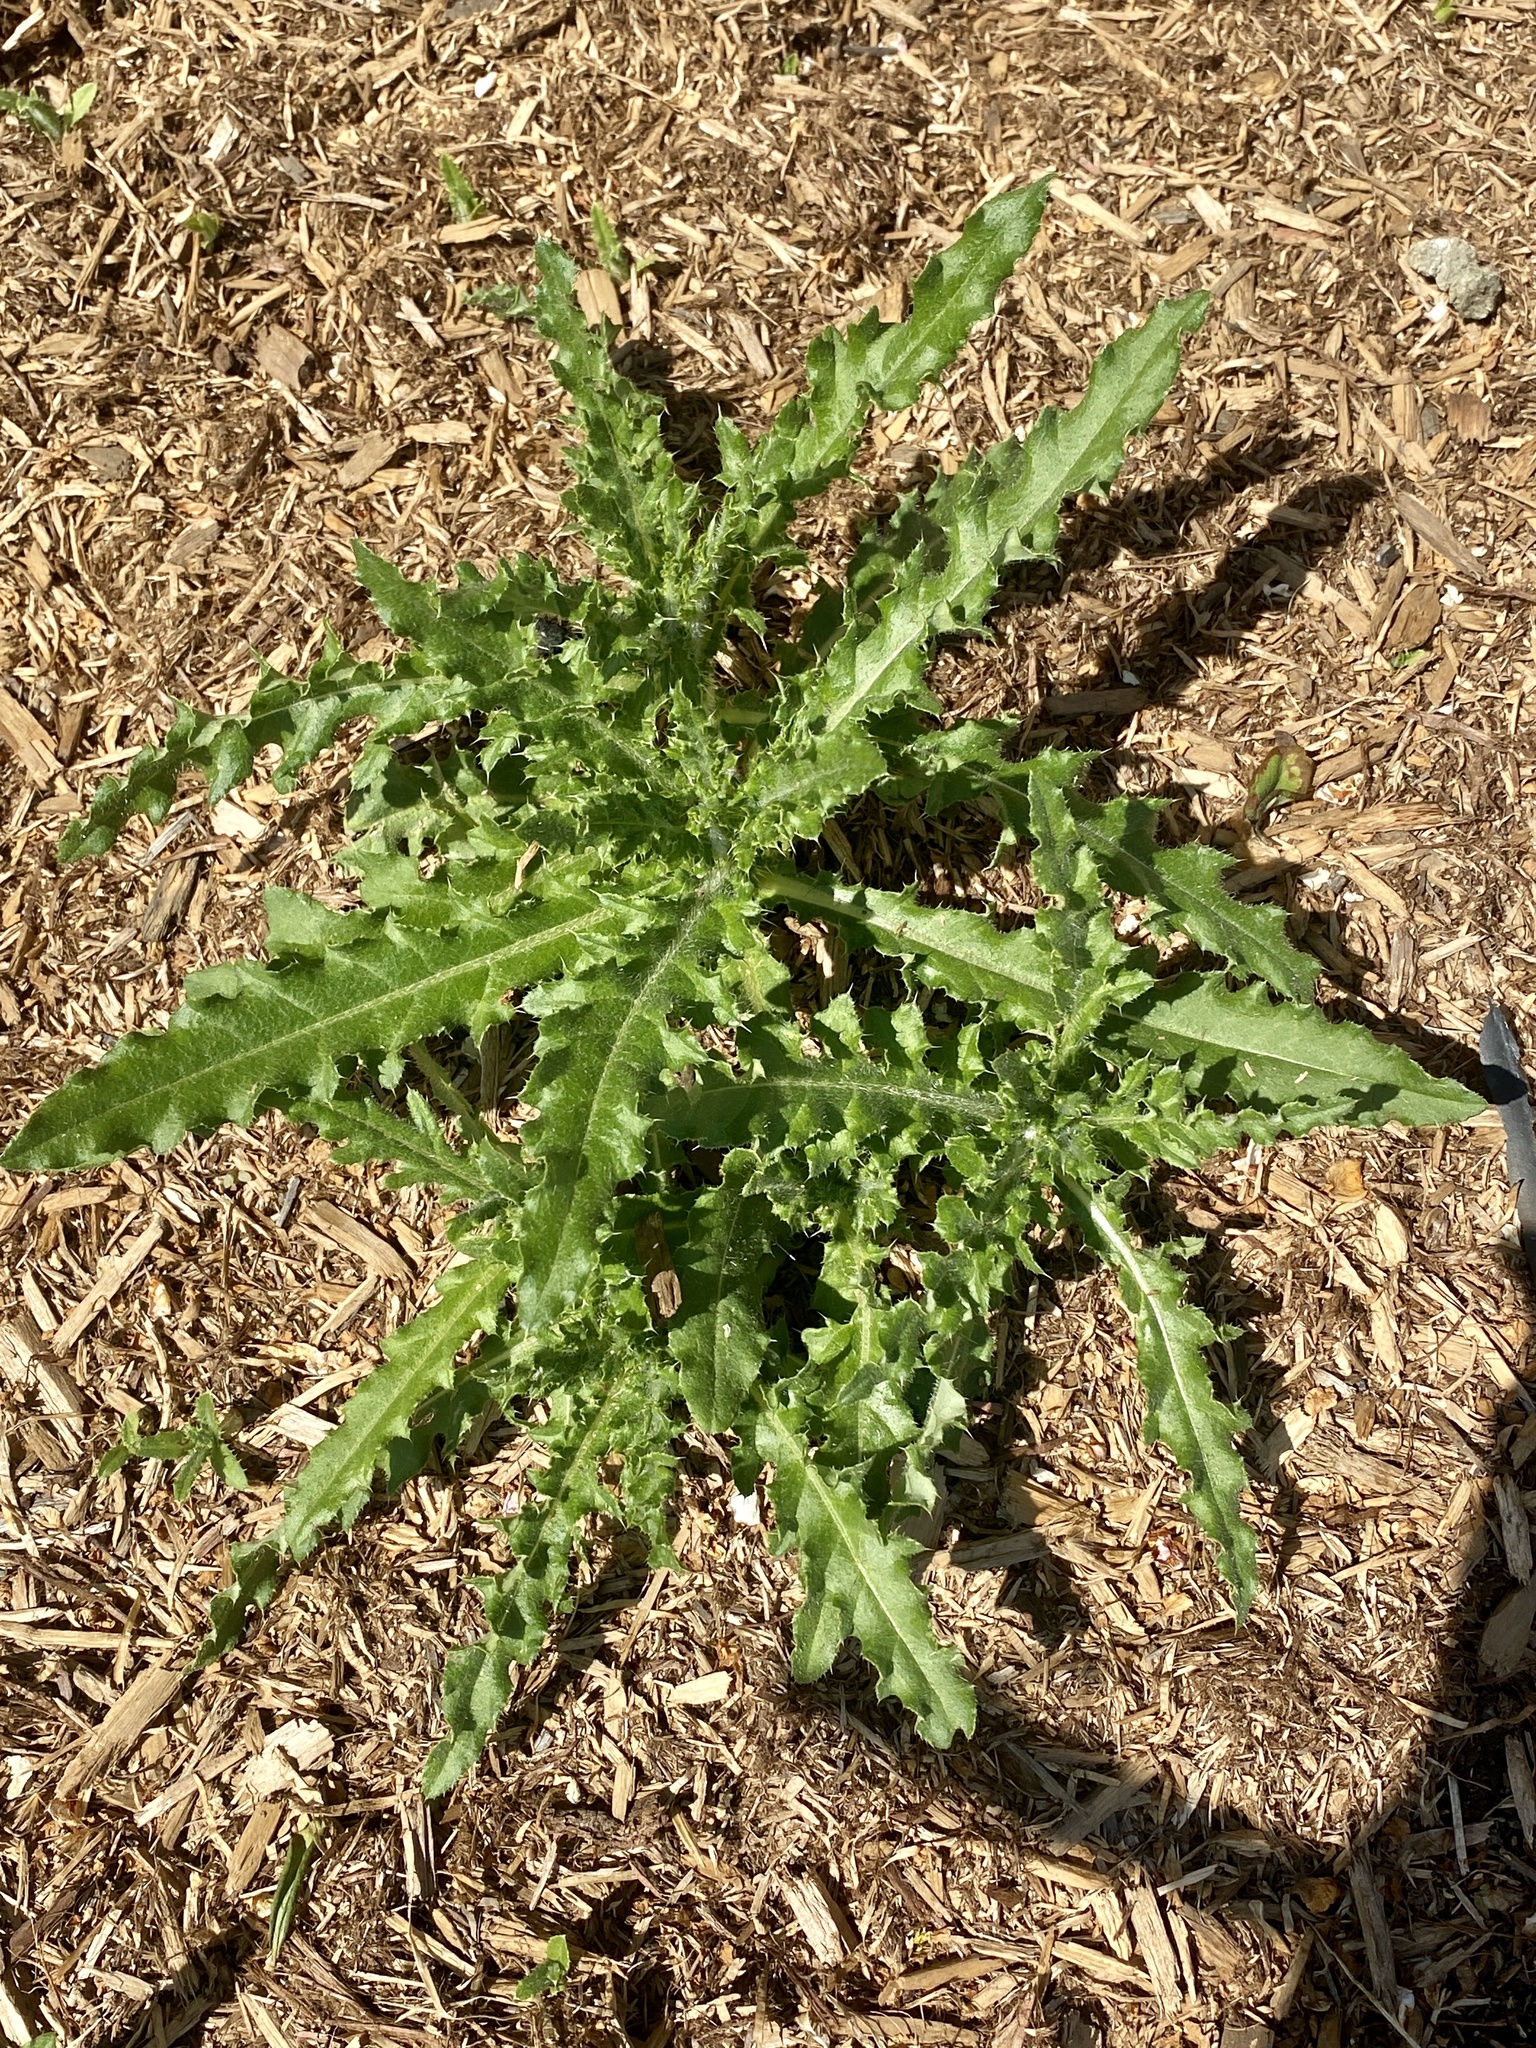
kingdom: Plantae
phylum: Tracheophyta
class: Magnoliopsida
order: Asterales
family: Asteraceae
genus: Cirsium
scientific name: Cirsium arvense
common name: Creeping thistle
